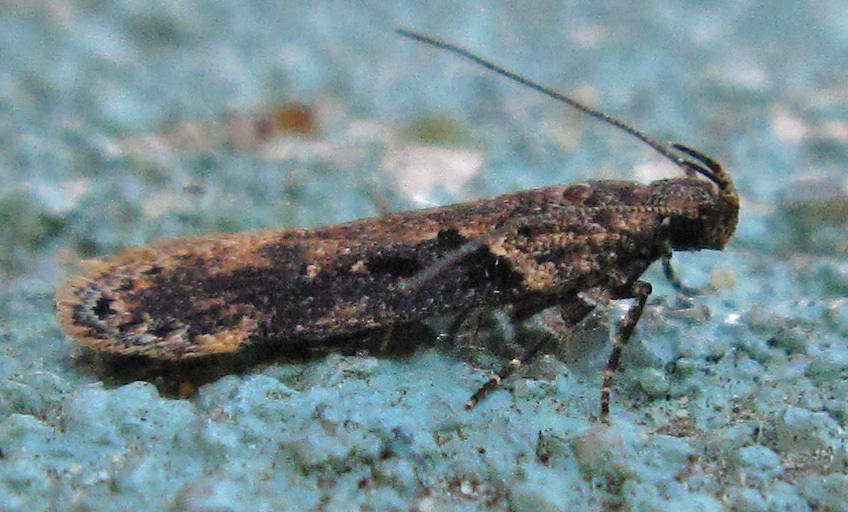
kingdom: Animalia
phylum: Arthropoda
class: Insecta
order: Lepidoptera
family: Gelechiidae
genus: Chionodes
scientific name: Chionodes mediofuscella
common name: Black-smudged chionodes moth
